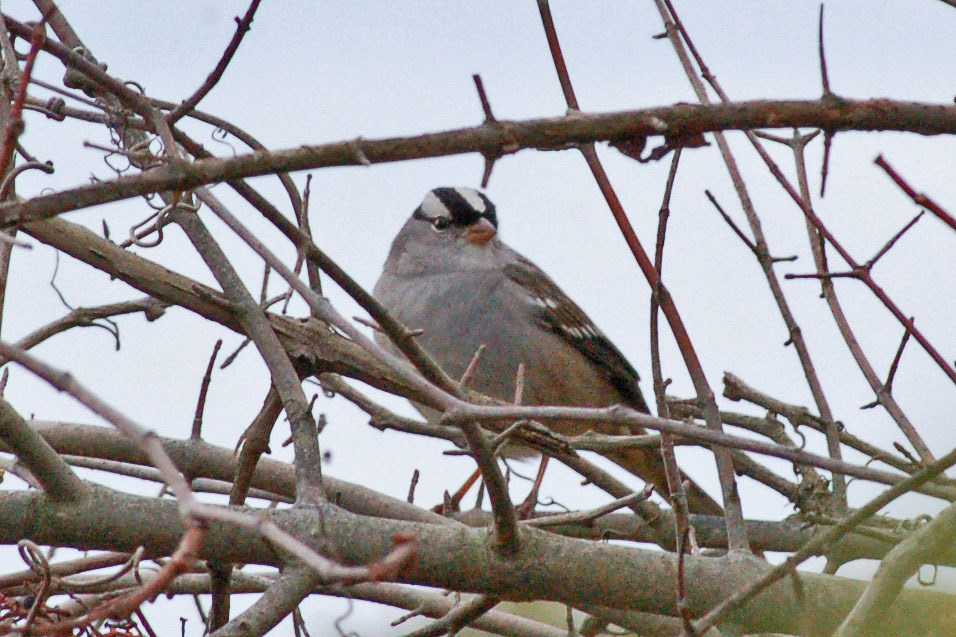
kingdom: Animalia
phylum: Chordata
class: Aves
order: Passeriformes
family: Passerellidae
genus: Zonotrichia
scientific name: Zonotrichia leucophrys
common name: White-crowned sparrow
